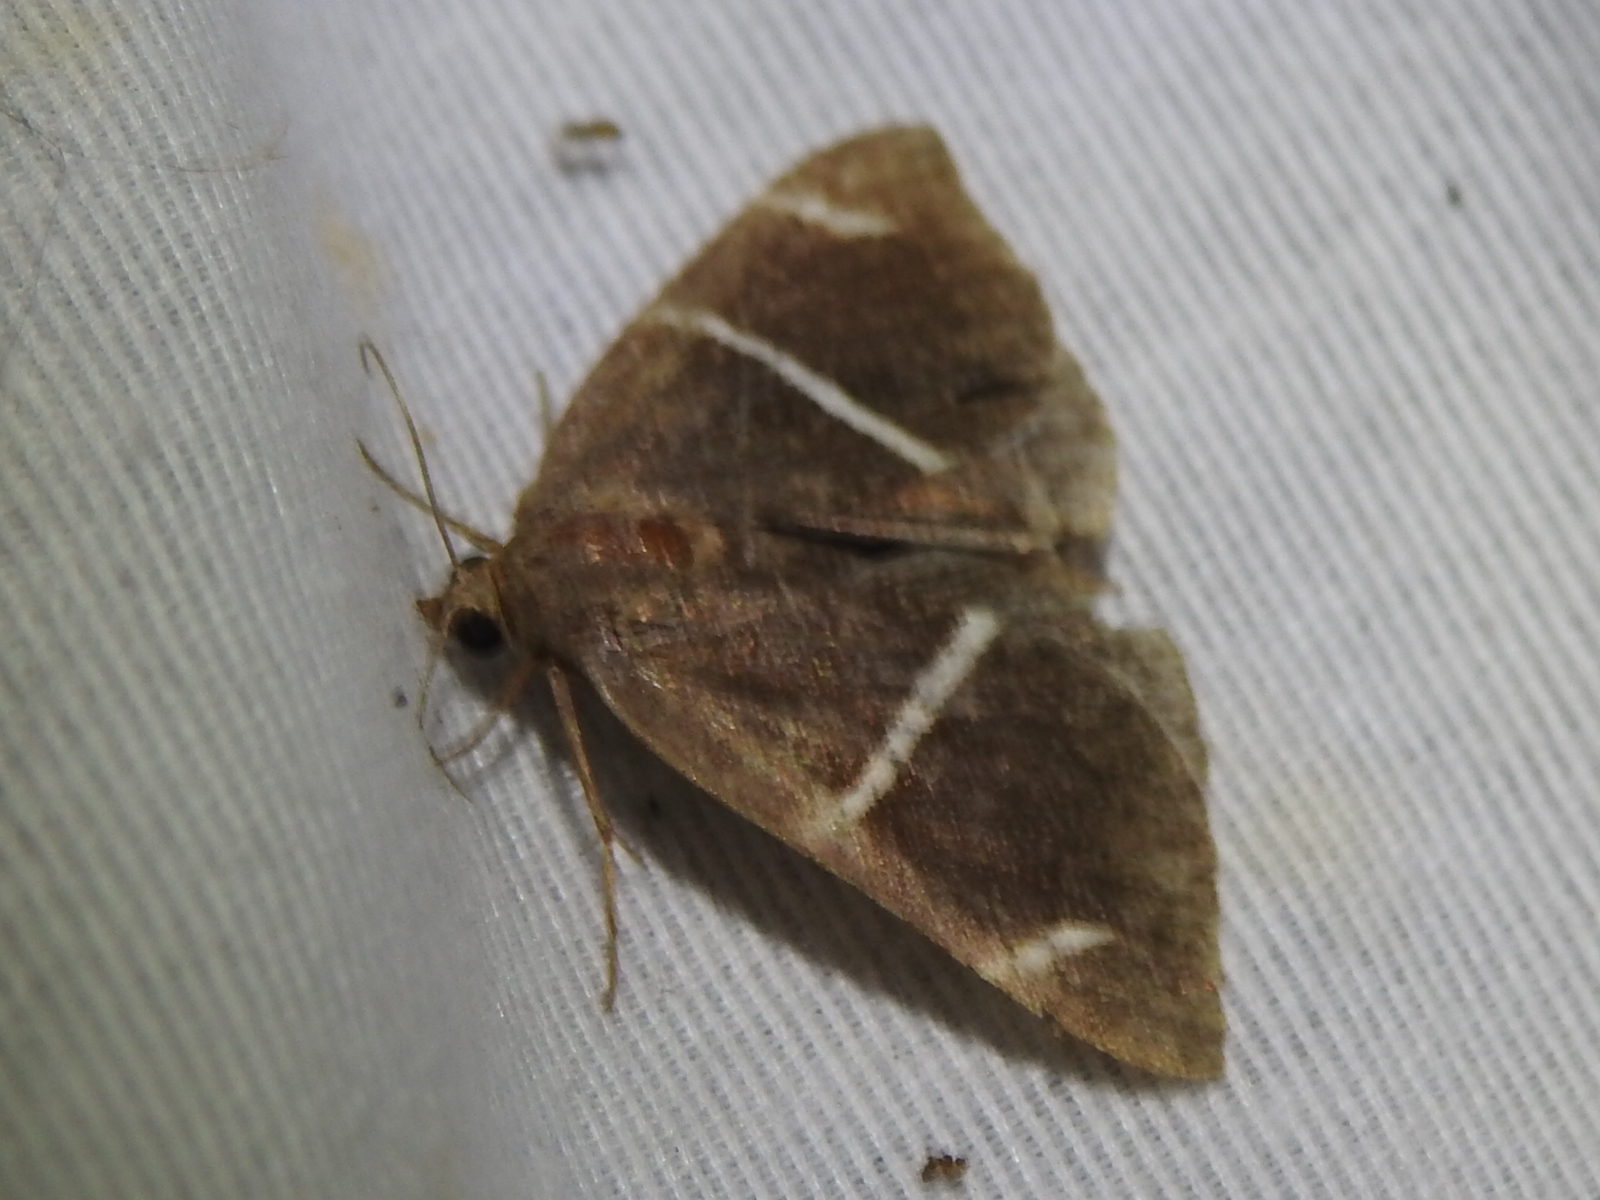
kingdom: Animalia
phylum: Arthropoda
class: Insecta
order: Lepidoptera
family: Erebidae
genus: Argyrostrotis
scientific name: Argyrostrotis anilis
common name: Short-lined chocolate
